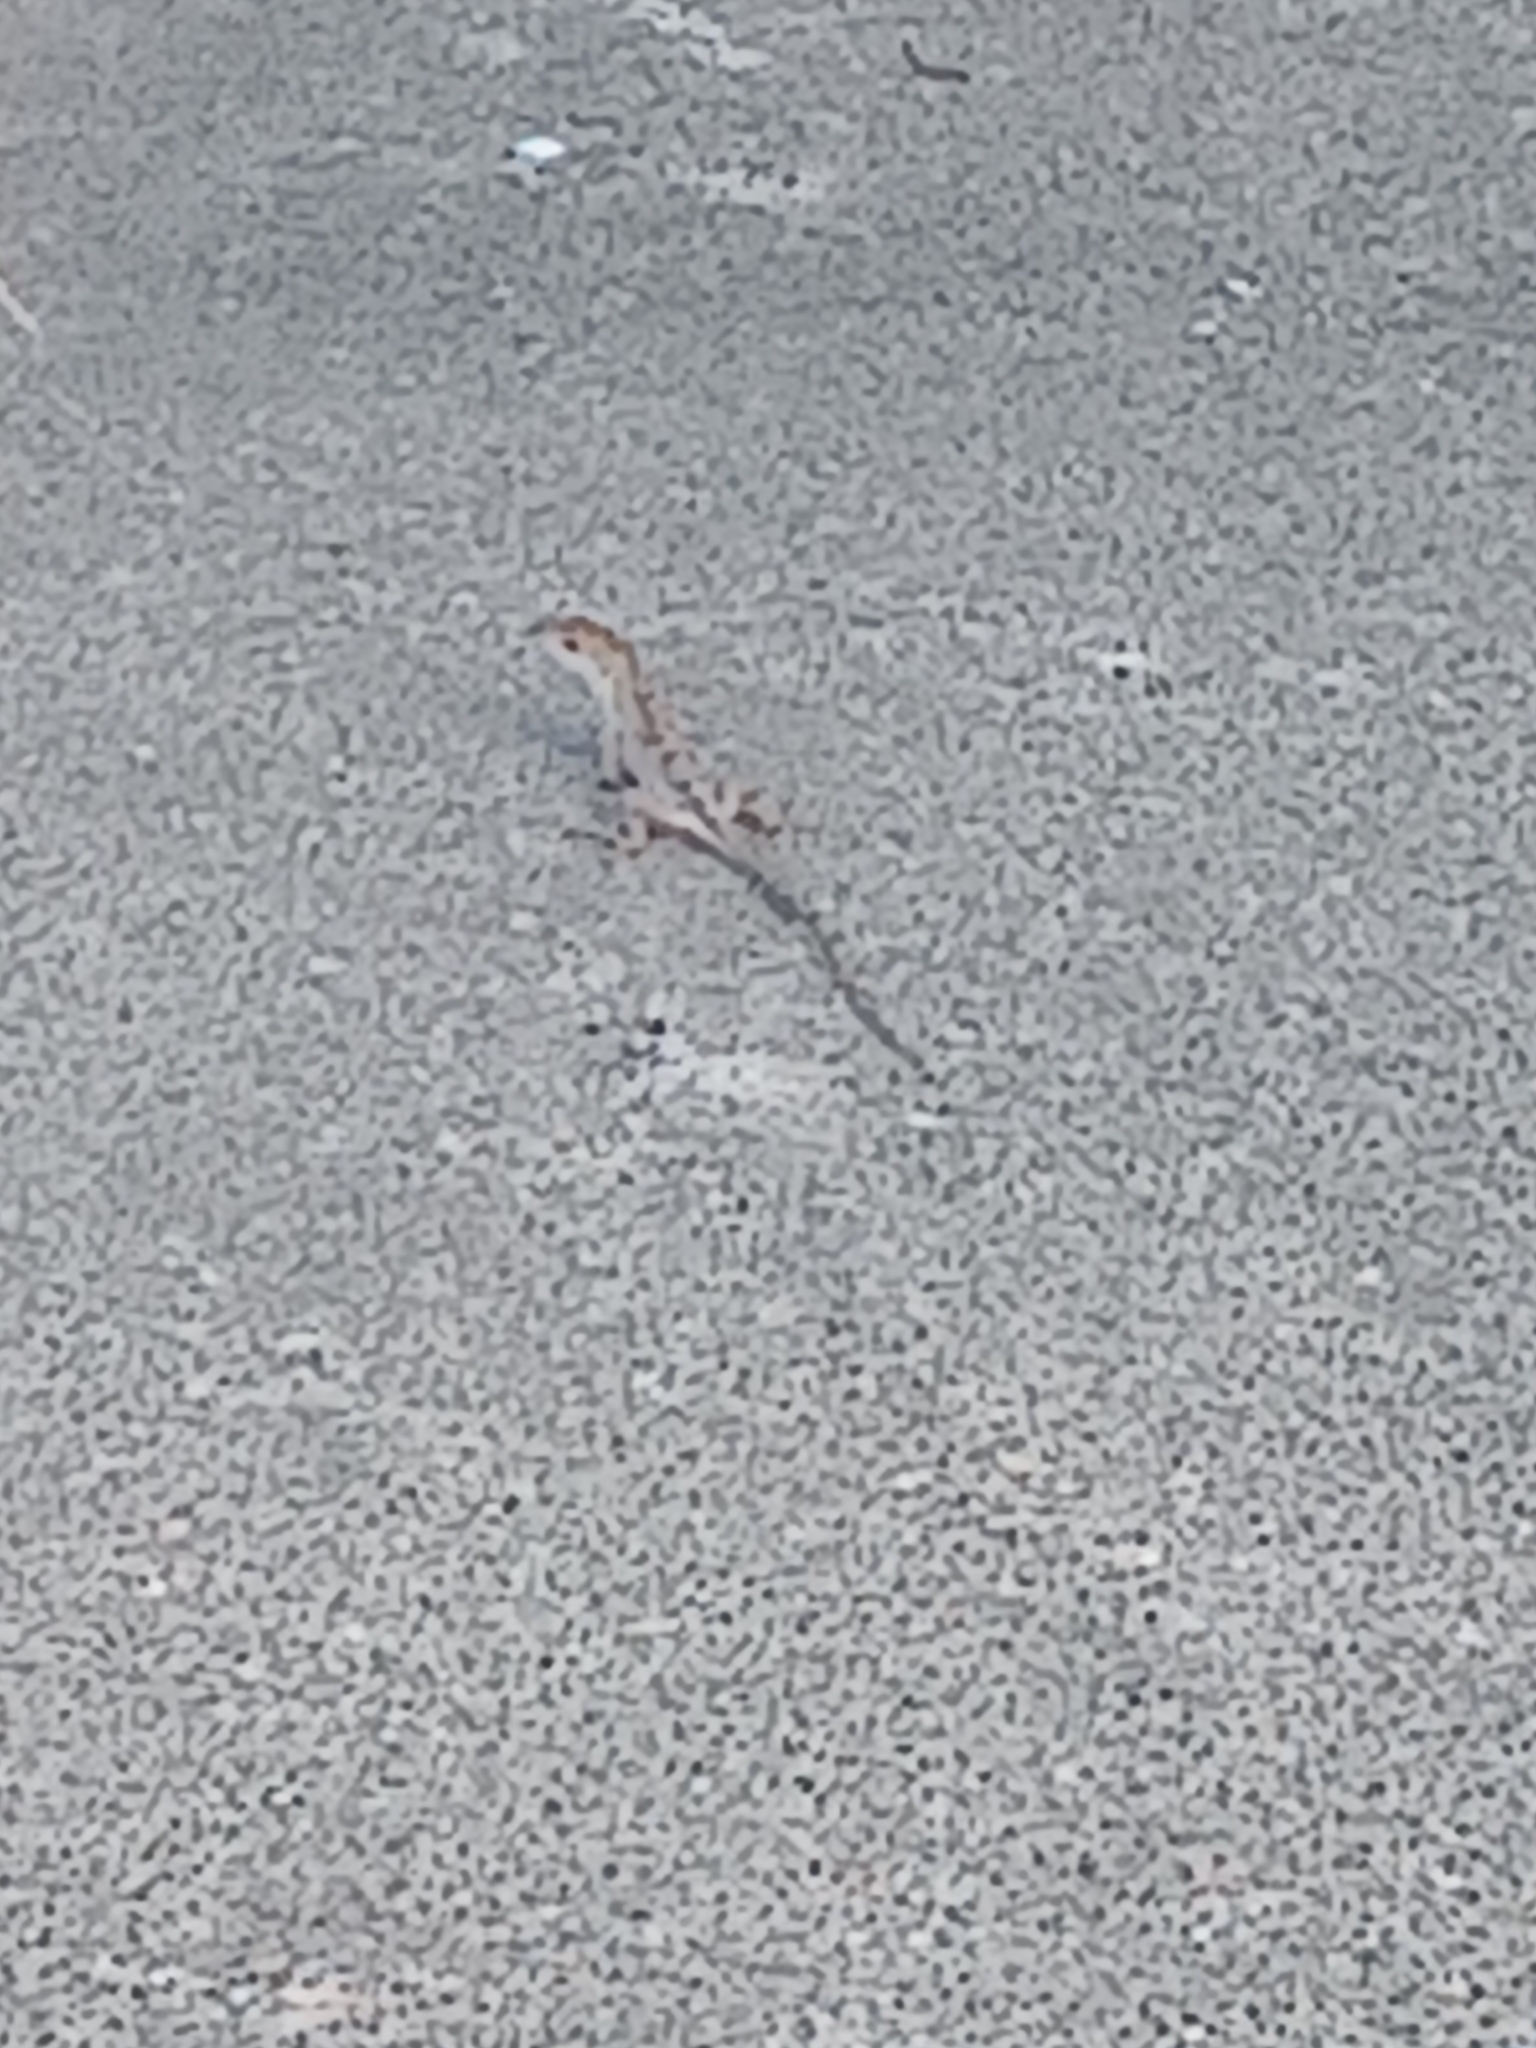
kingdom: Animalia
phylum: Chordata
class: Squamata
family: Dactyloidae
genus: Anolis
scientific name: Anolis sagrei
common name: Brown anole
